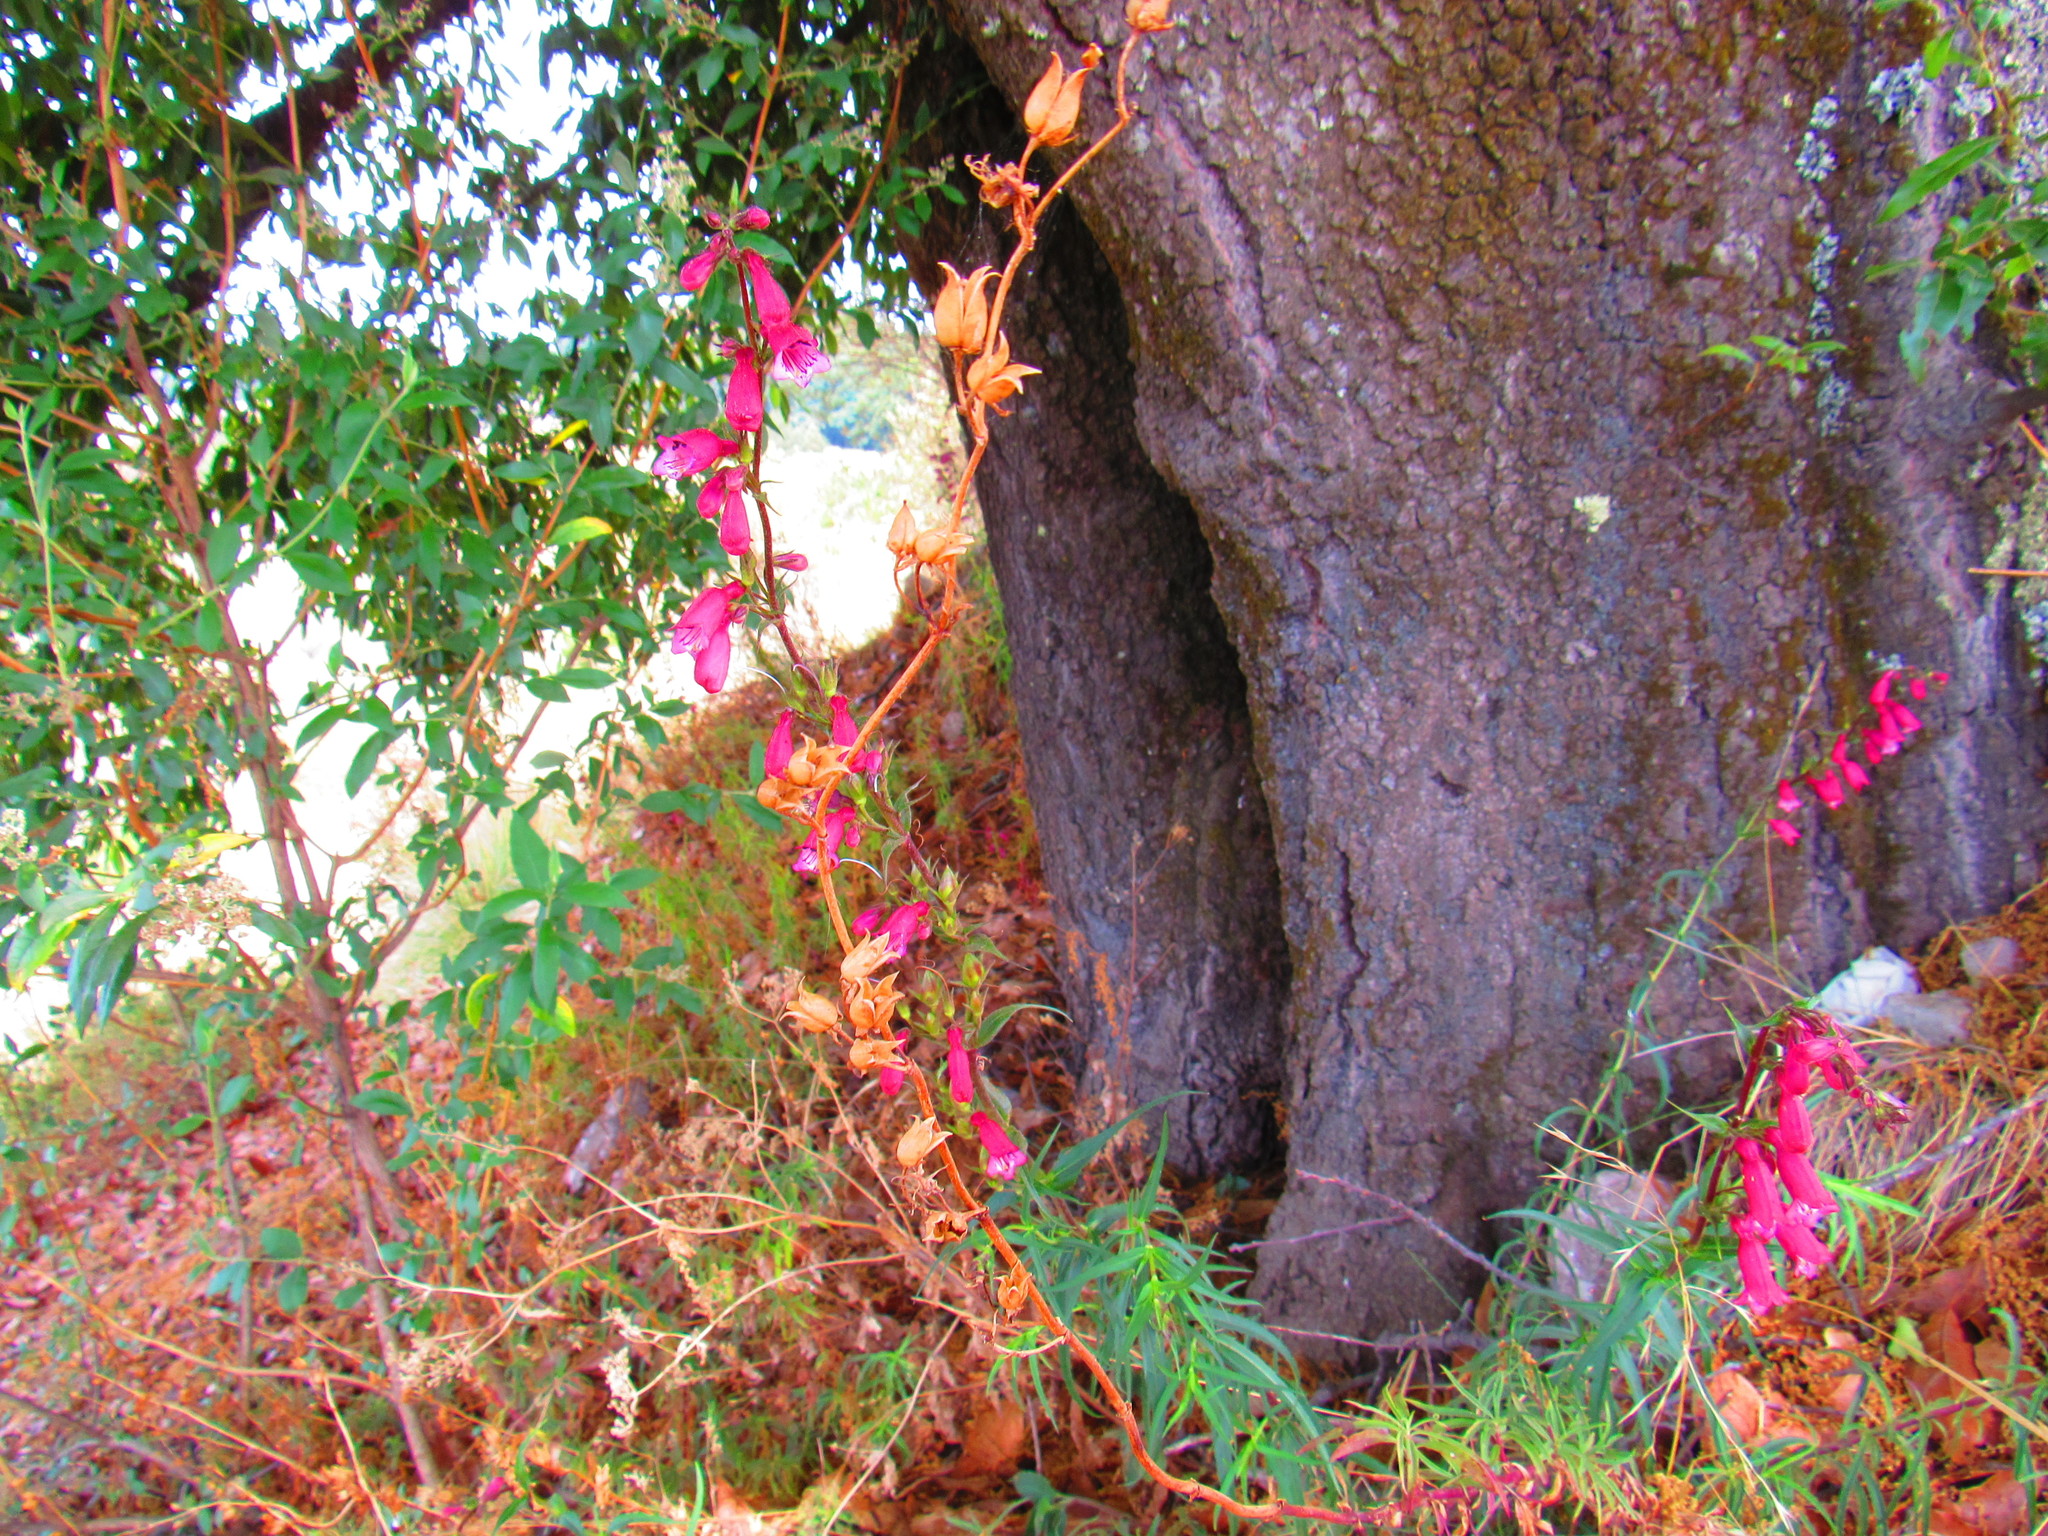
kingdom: Plantae
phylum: Tracheophyta
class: Magnoliopsida
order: Lamiales
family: Plantaginaceae
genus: Penstemon
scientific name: Penstemon roseus
